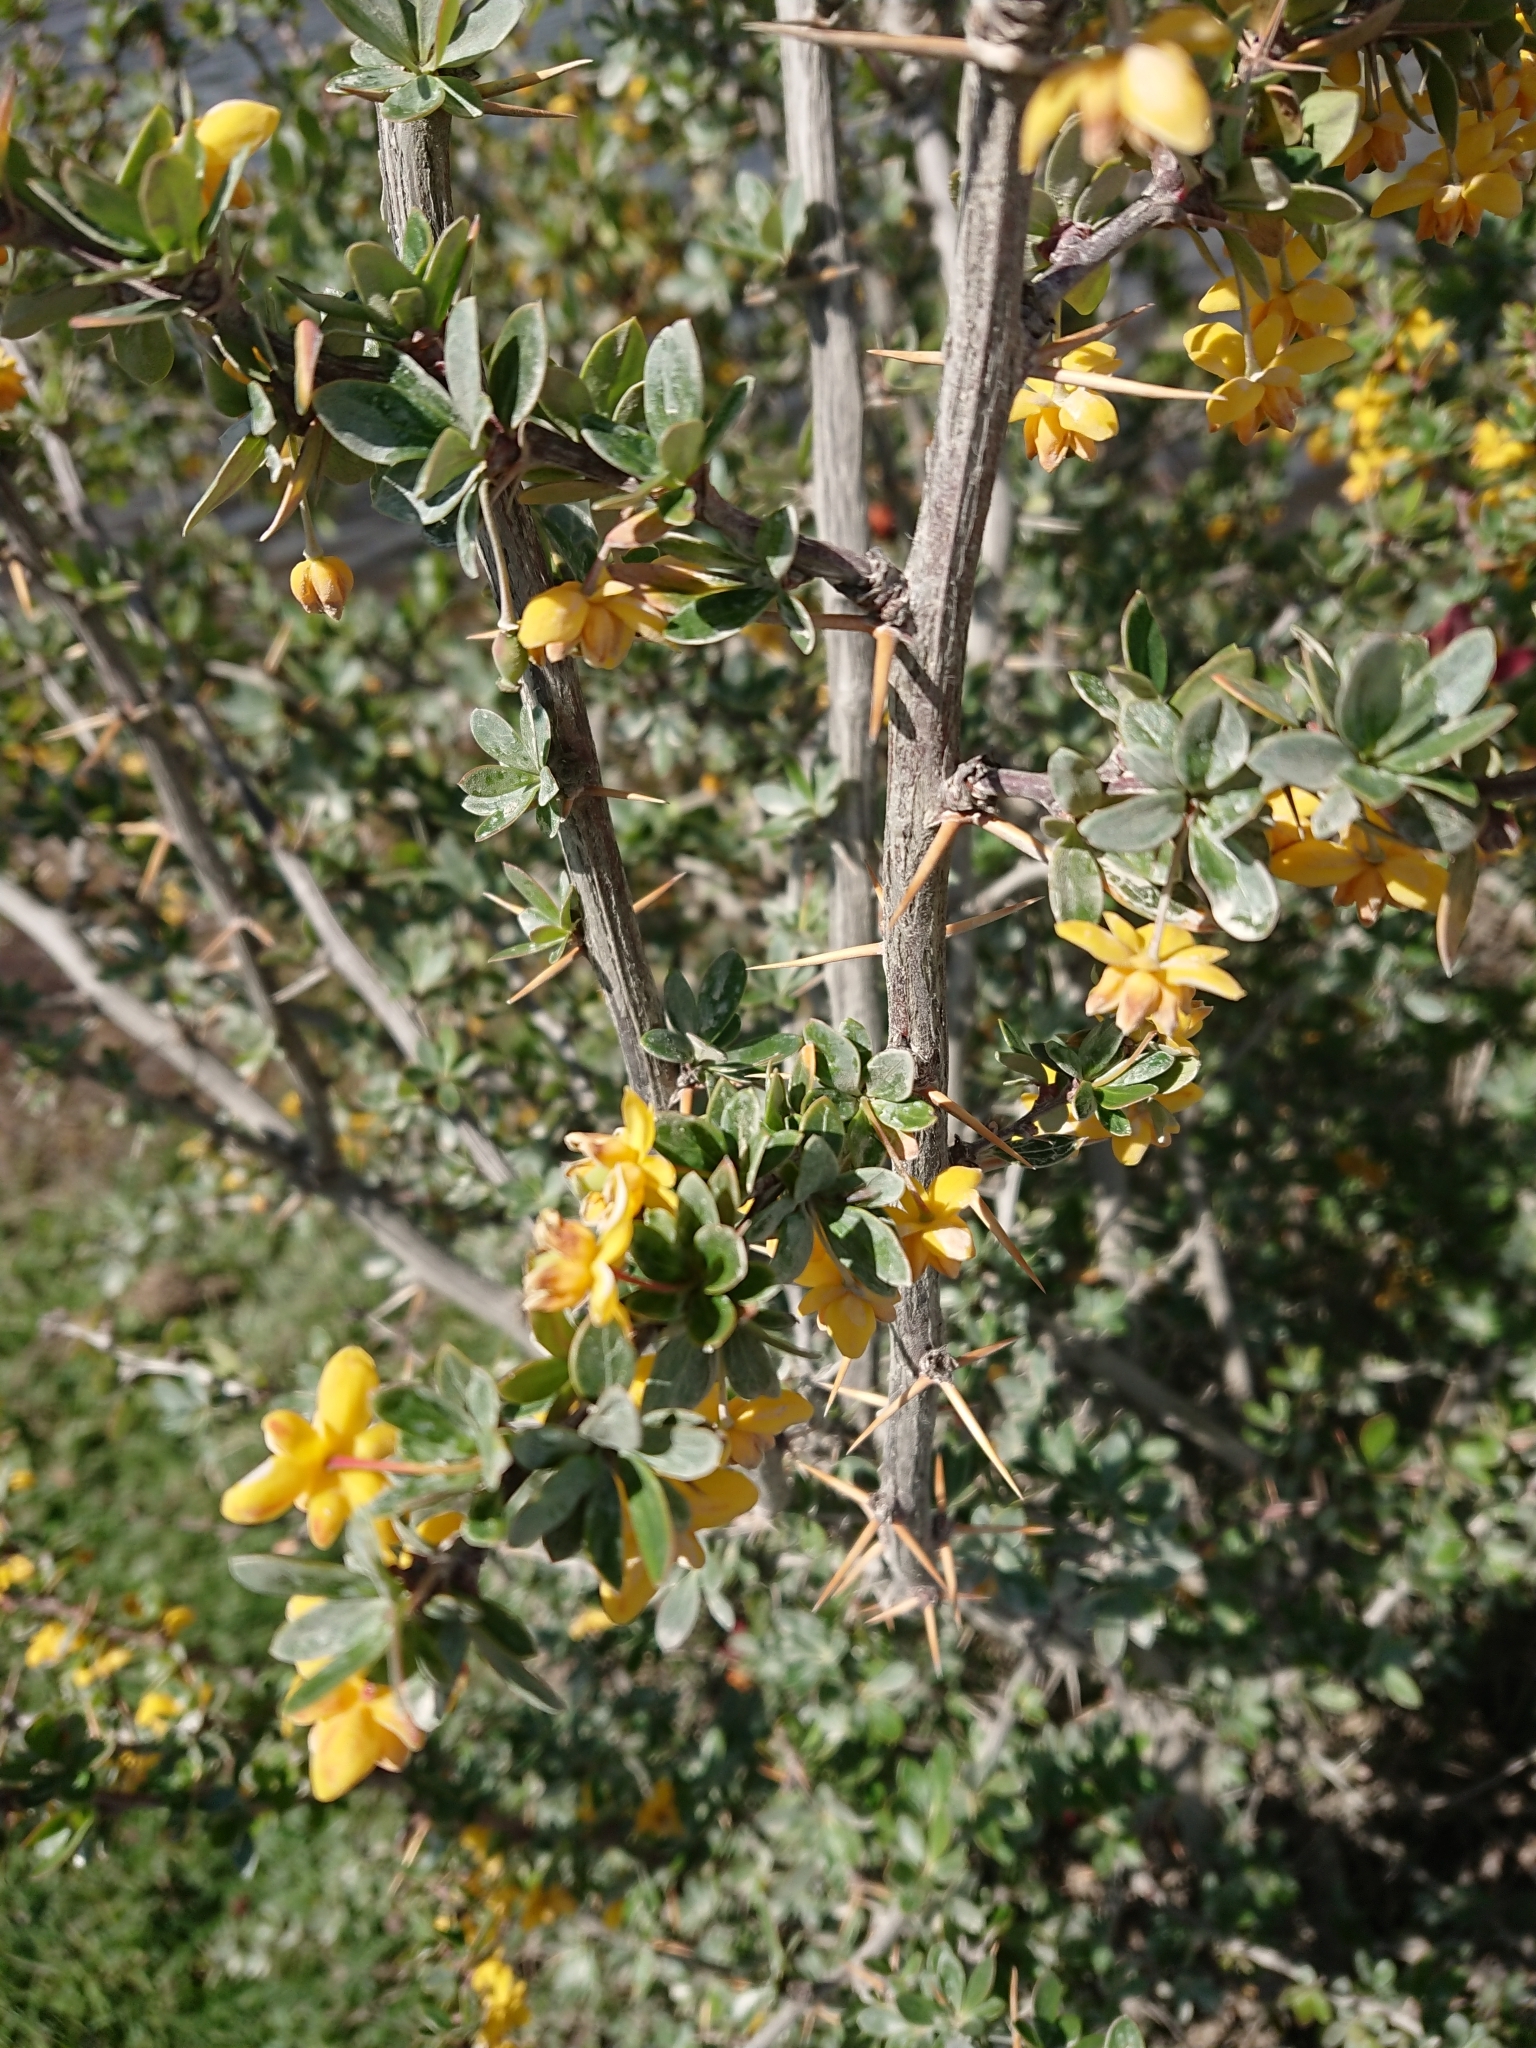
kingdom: Plantae
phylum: Tracheophyta
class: Magnoliopsida
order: Ranunculales
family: Berberidaceae
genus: Berberis
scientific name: Berberis microphylla
